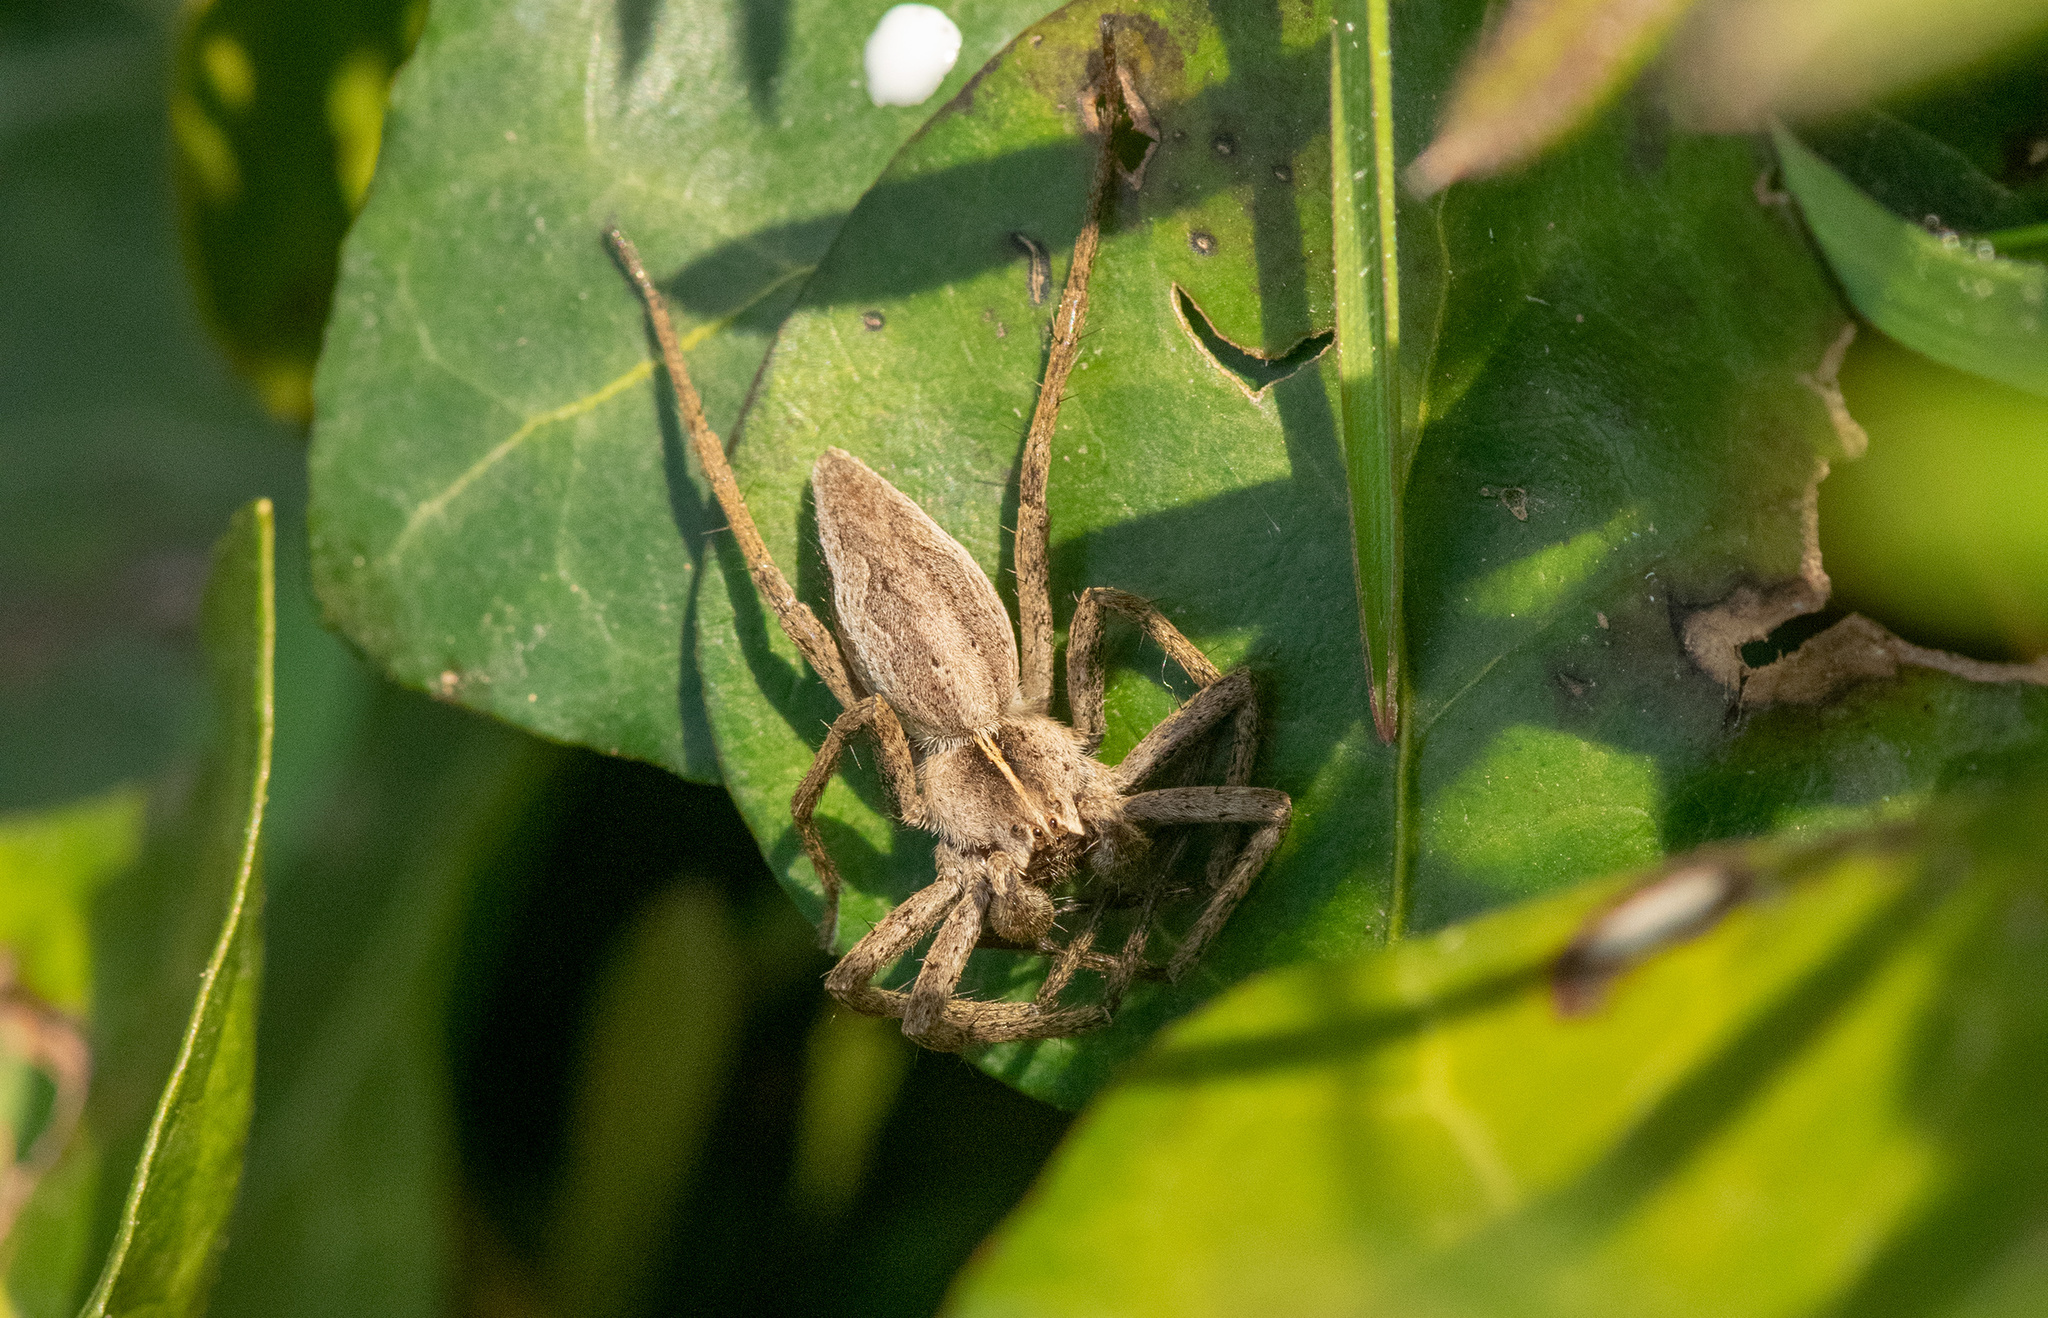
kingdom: Animalia
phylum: Arthropoda
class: Arachnida
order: Araneae
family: Pisauridae
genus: Pisaura
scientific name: Pisaura mirabilis
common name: Tent spider
